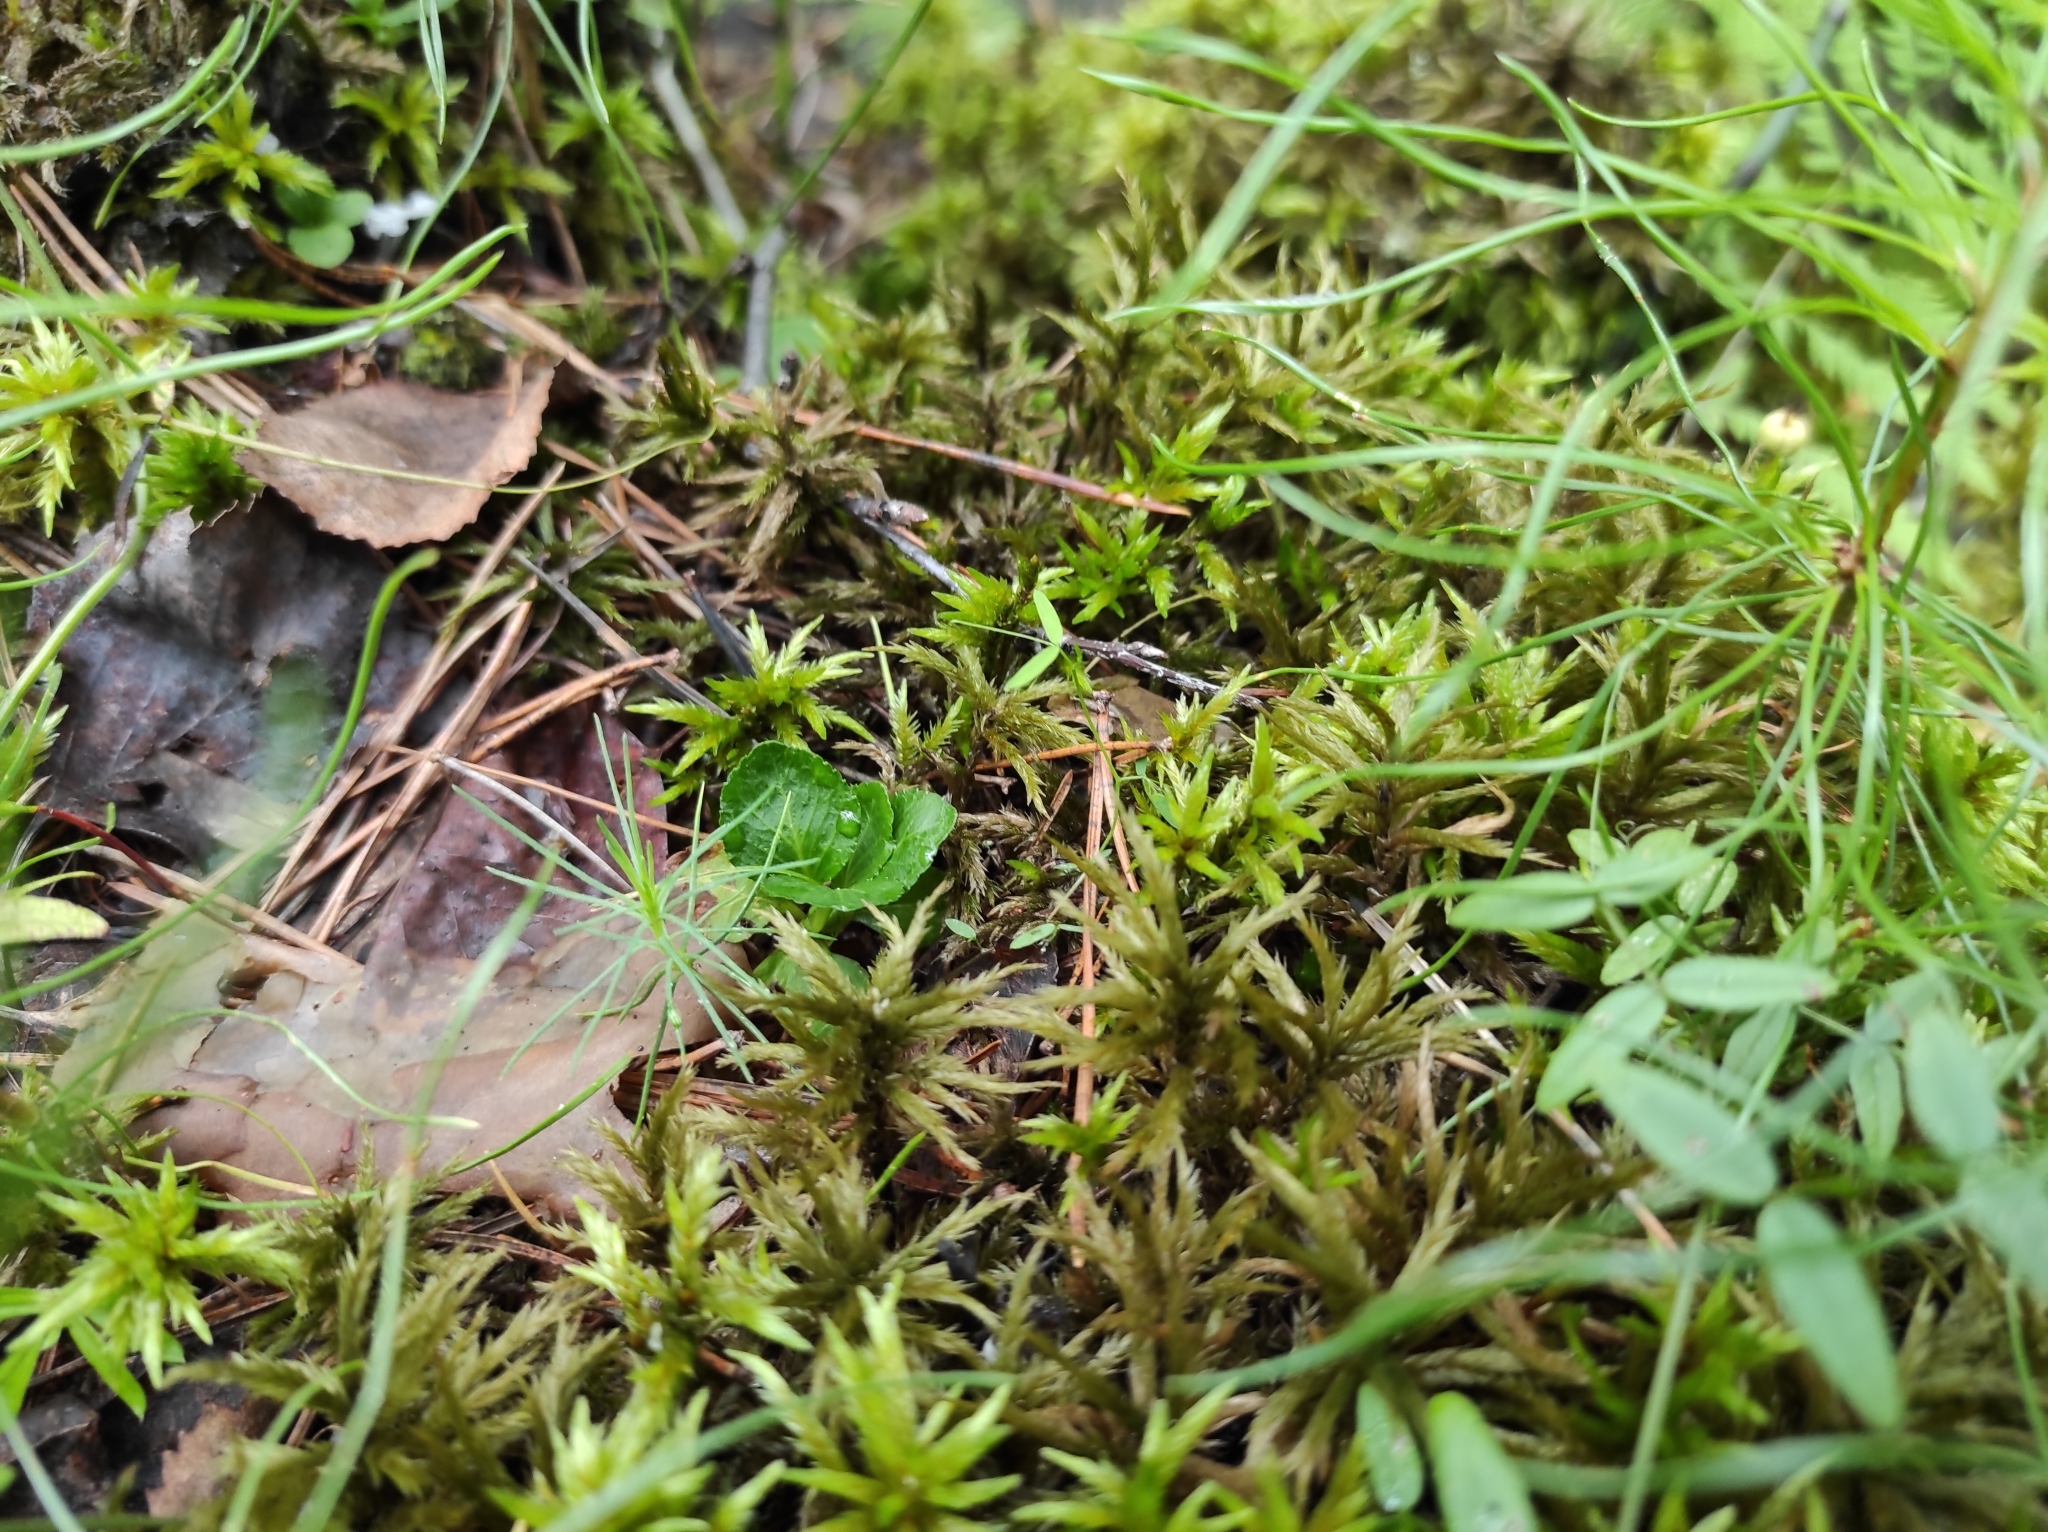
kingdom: Plantae
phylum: Tracheophyta
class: Pinopsida
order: Pinales
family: Pinaceae
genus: Pinus
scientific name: Pinus sylvestris
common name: Scots pine
